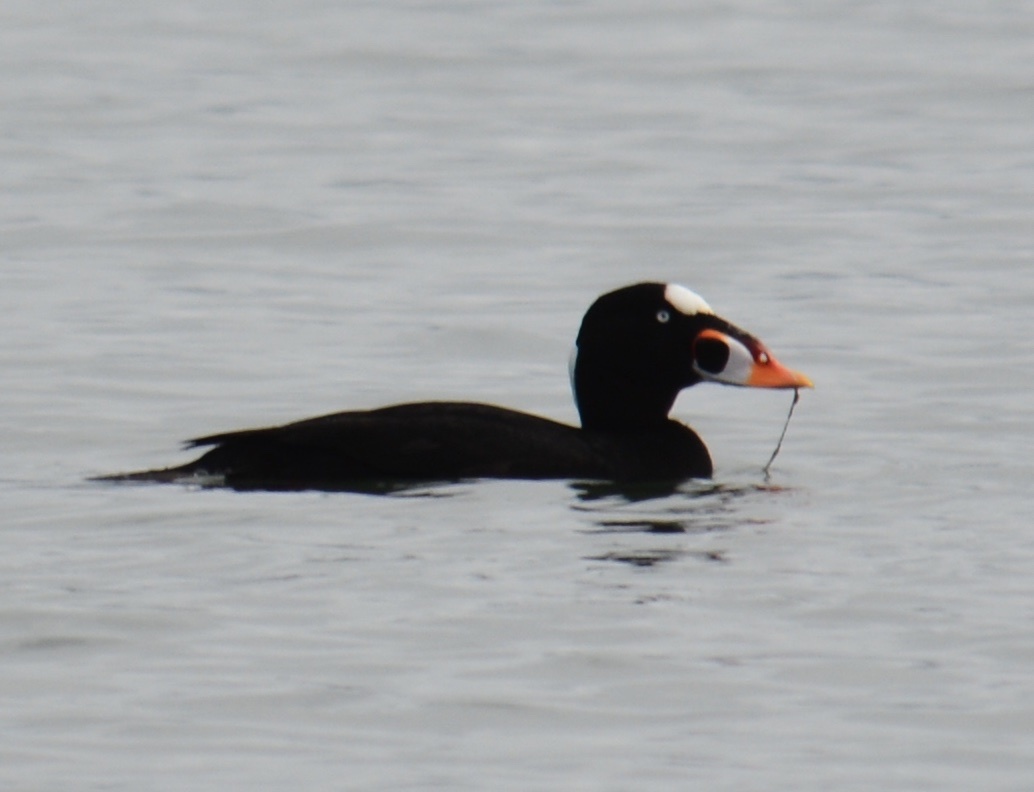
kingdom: Animalia
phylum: Chordata
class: Aves
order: Anseriformes
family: Anatidae
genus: Melanitta
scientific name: Melanitta perspicillata
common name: Surf scoter
